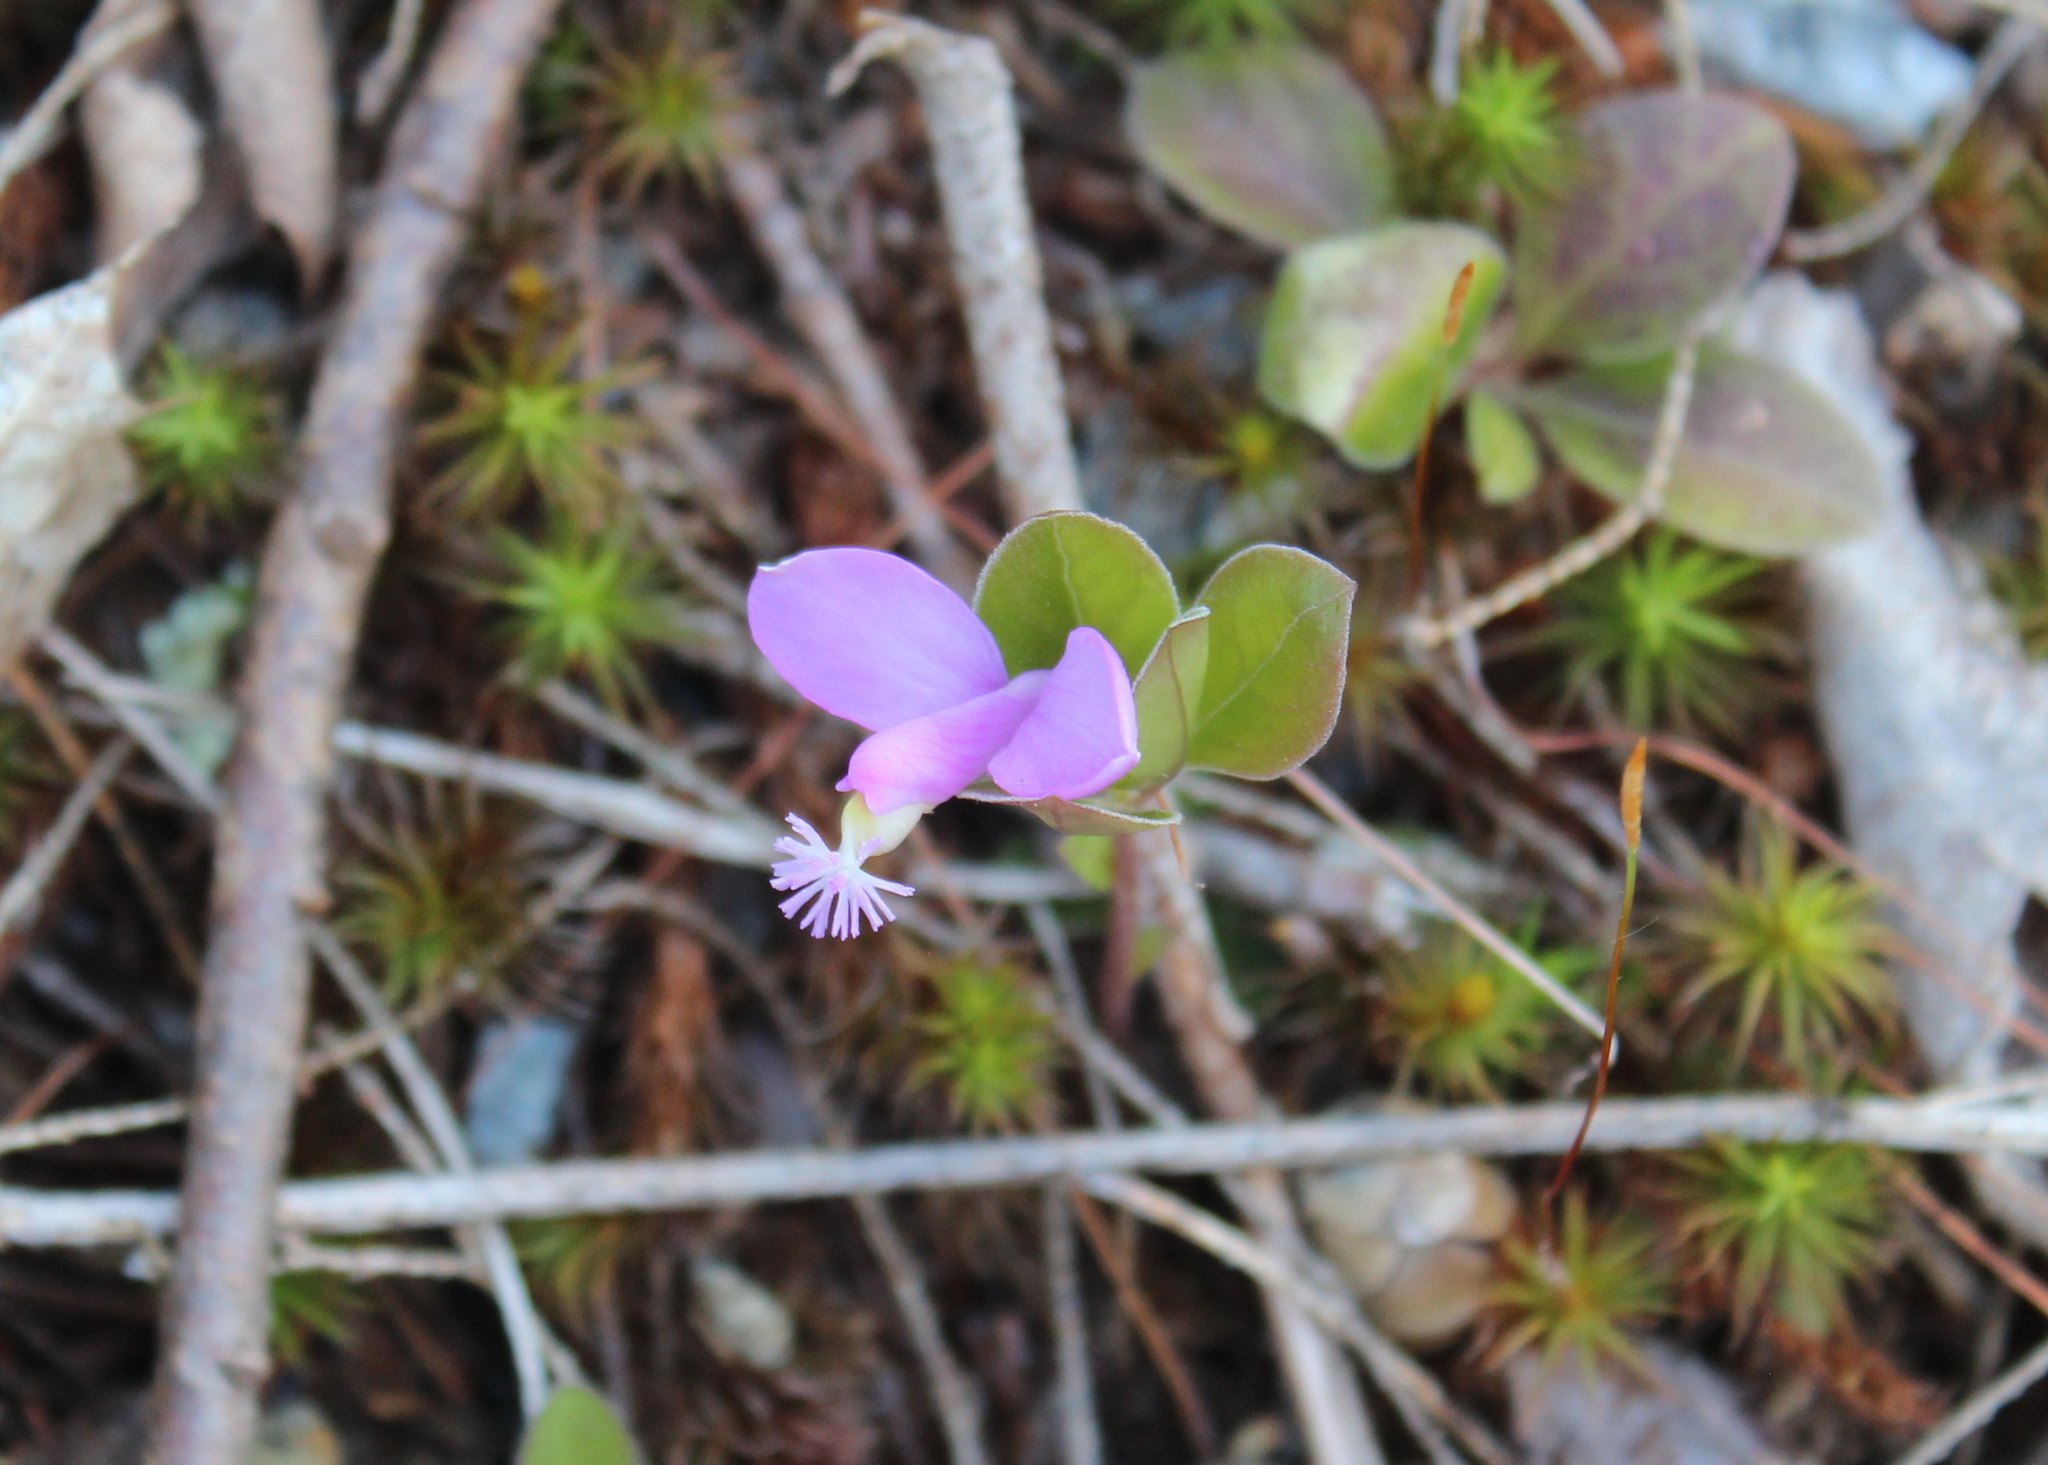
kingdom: Plantae
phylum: Tracheophyta
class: Magnoliopsida
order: Fabales
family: Polygalaceae
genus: Polygaloides
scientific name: Polygaloides paucifolia
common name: Bird-on-the-wing
